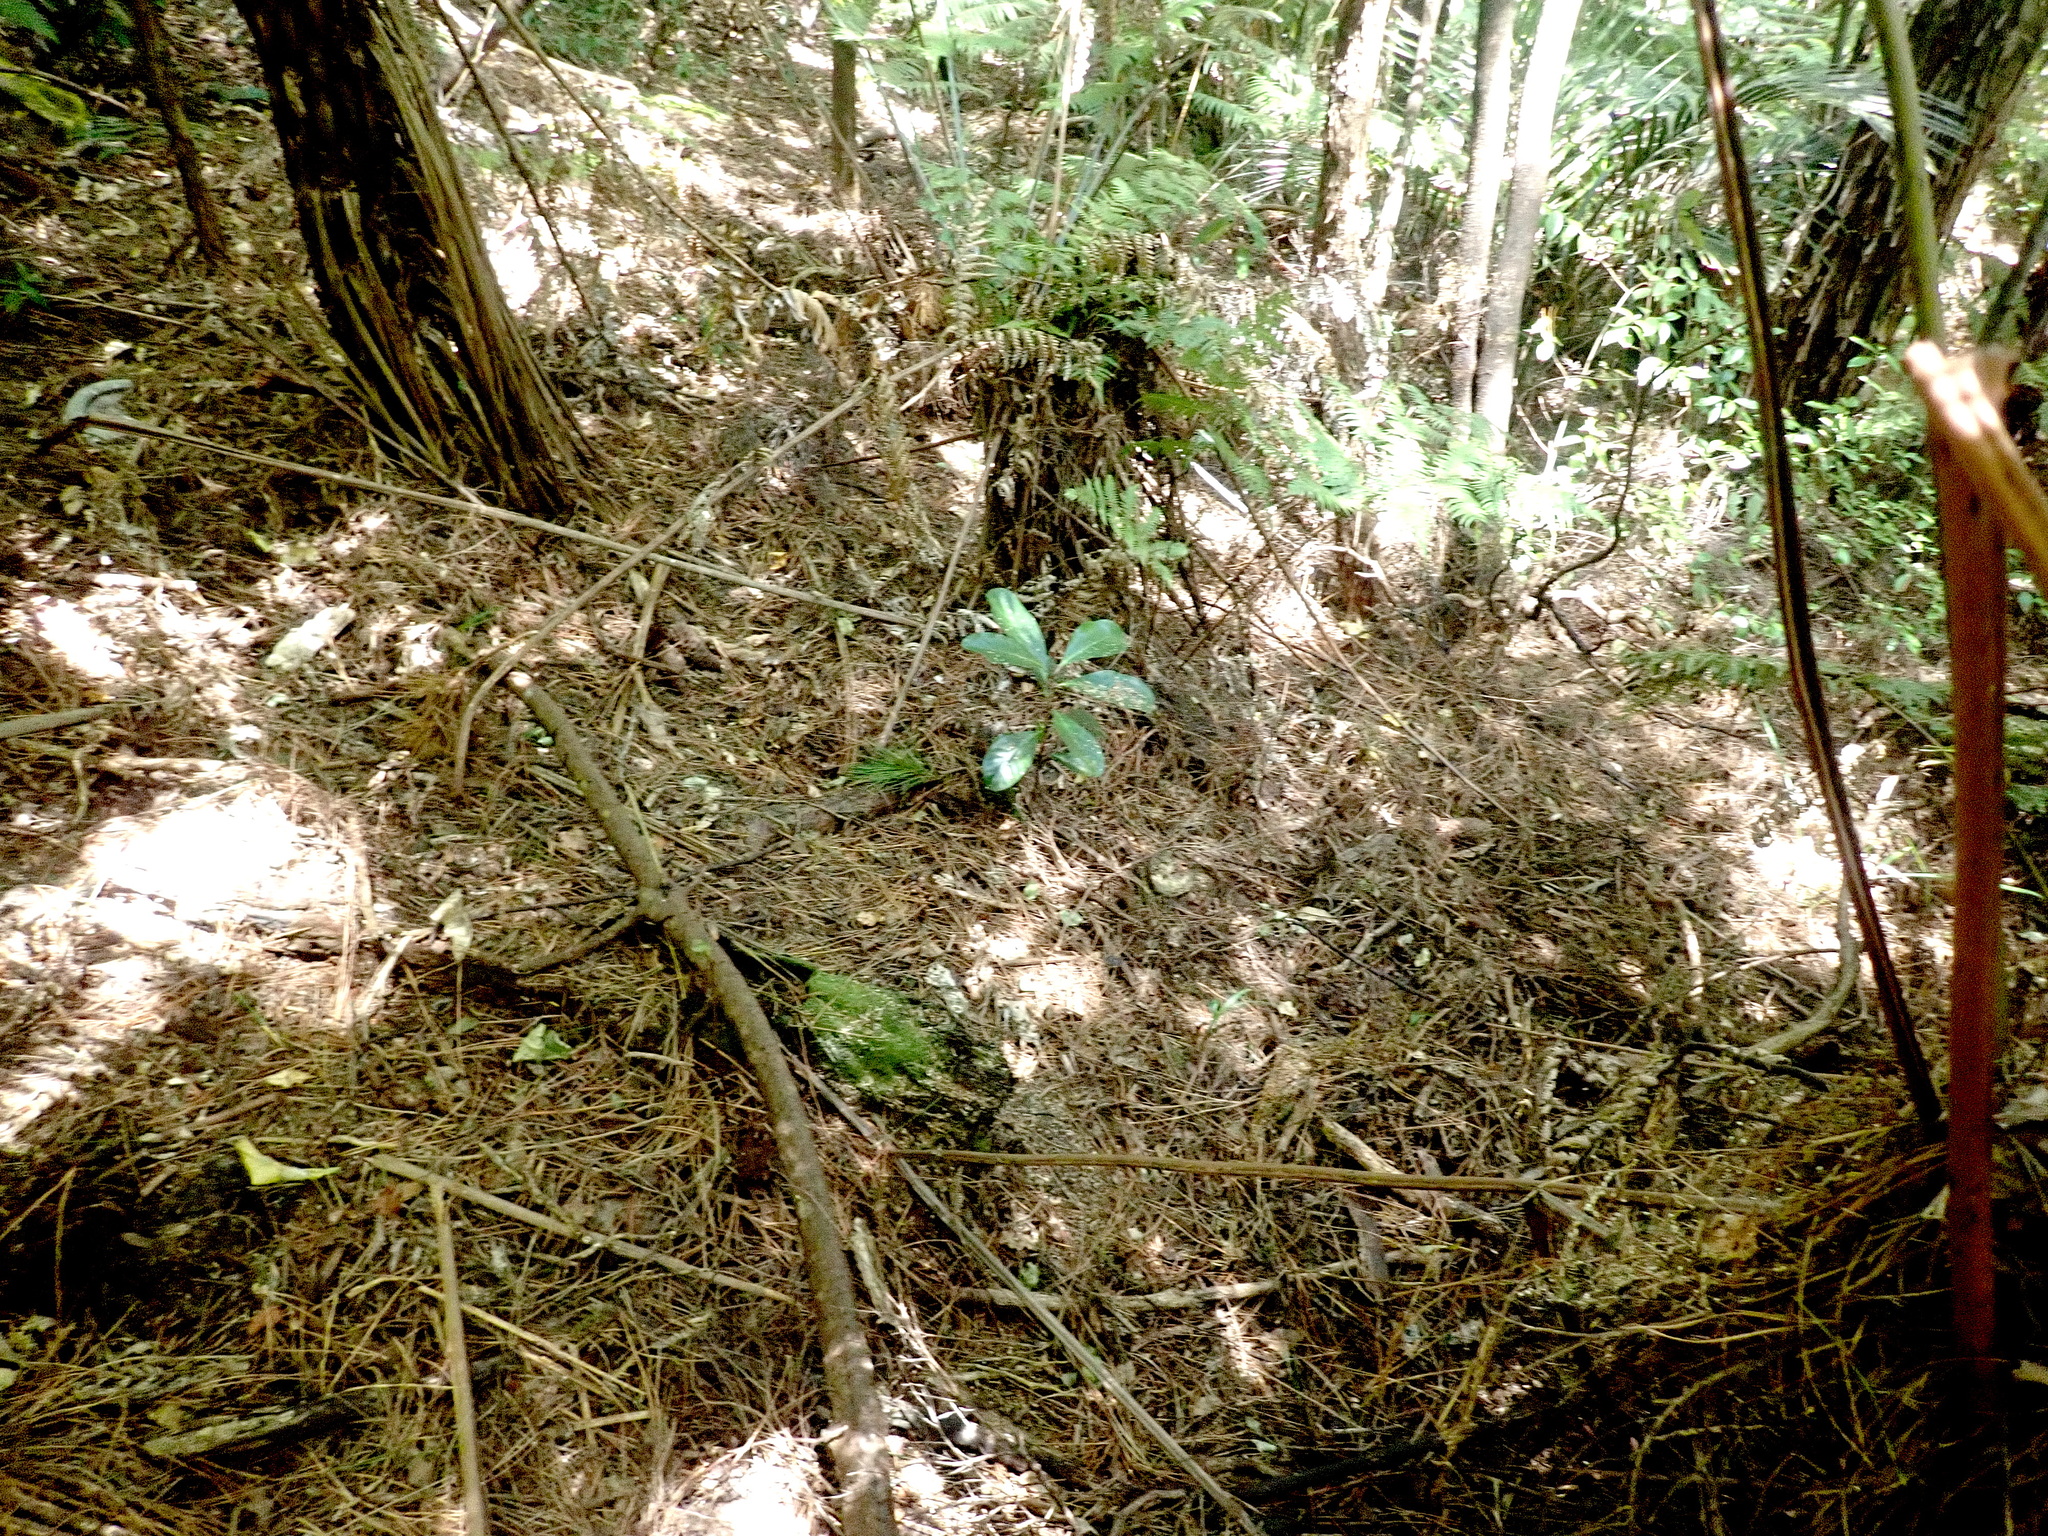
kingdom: Plantae
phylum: Tracheophyta
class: Magnoliopsida
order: Cucurbitales
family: Corynocarpaceae
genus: Corynocarpus
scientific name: Corynocarpus laevigatus
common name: New zealand laurel
